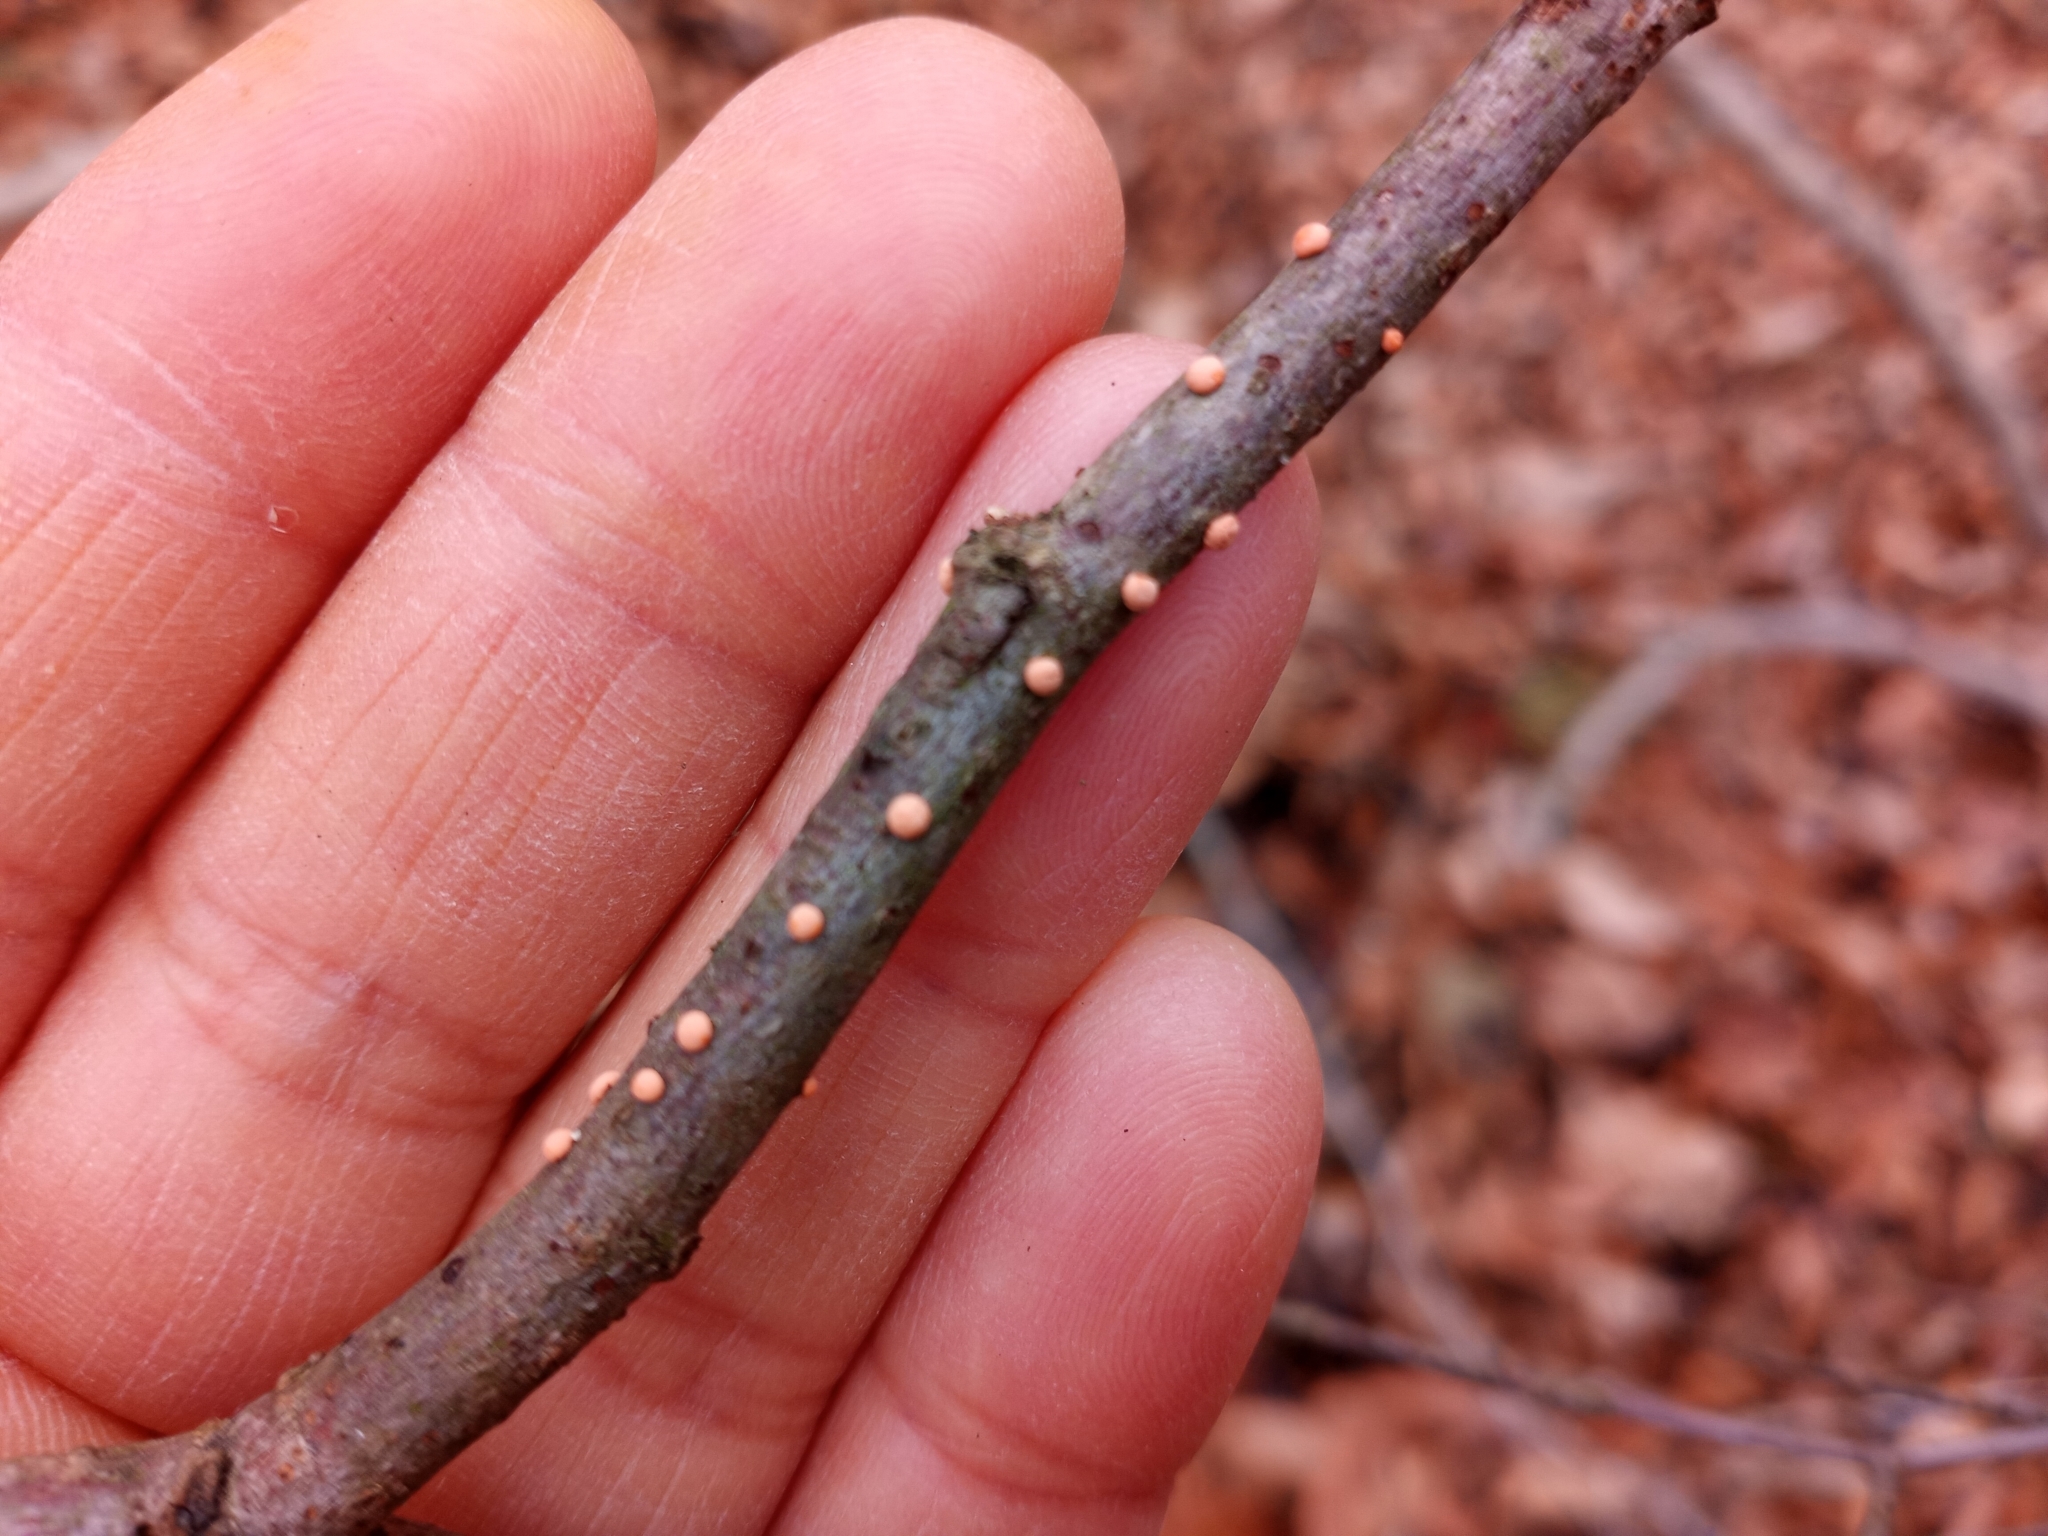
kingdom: Fungi
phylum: Ascomycota
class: Sordariomycetes
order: Hypocreales
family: Nectriaceae
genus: Nectria
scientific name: Nectria cinnabarina
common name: Coral spot
